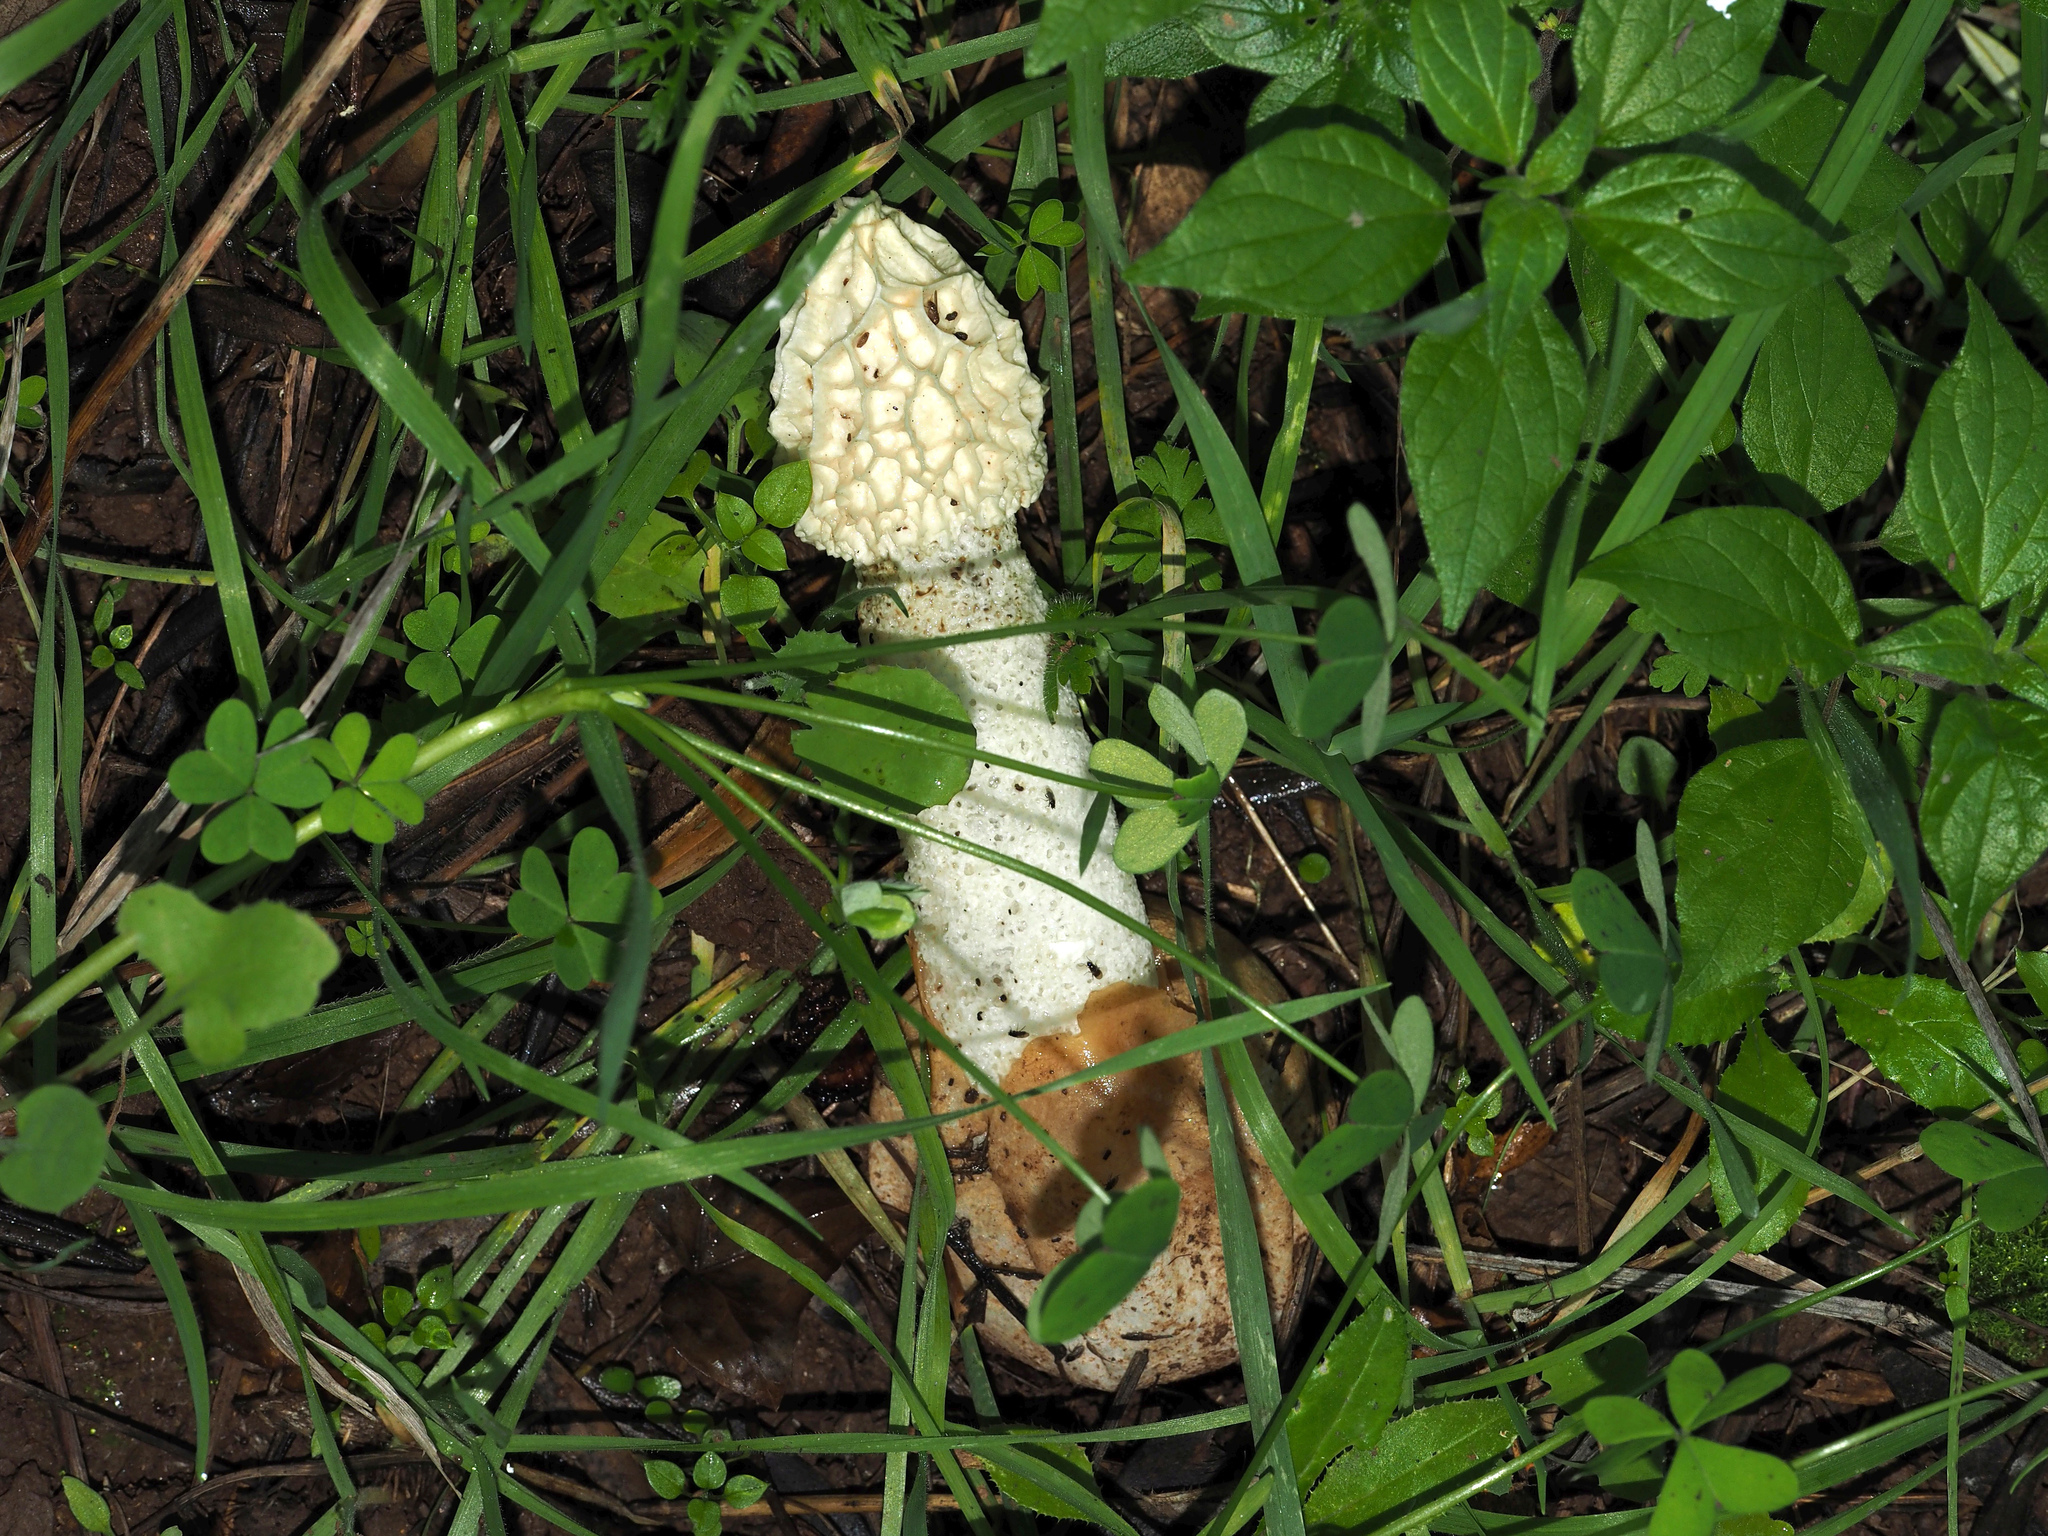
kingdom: Fungi
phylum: Basidiomycota
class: Agaricomycetes
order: Phallales
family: Phallaceae
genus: Phallus
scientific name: Phallus impudicus
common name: Common stinkhorn
